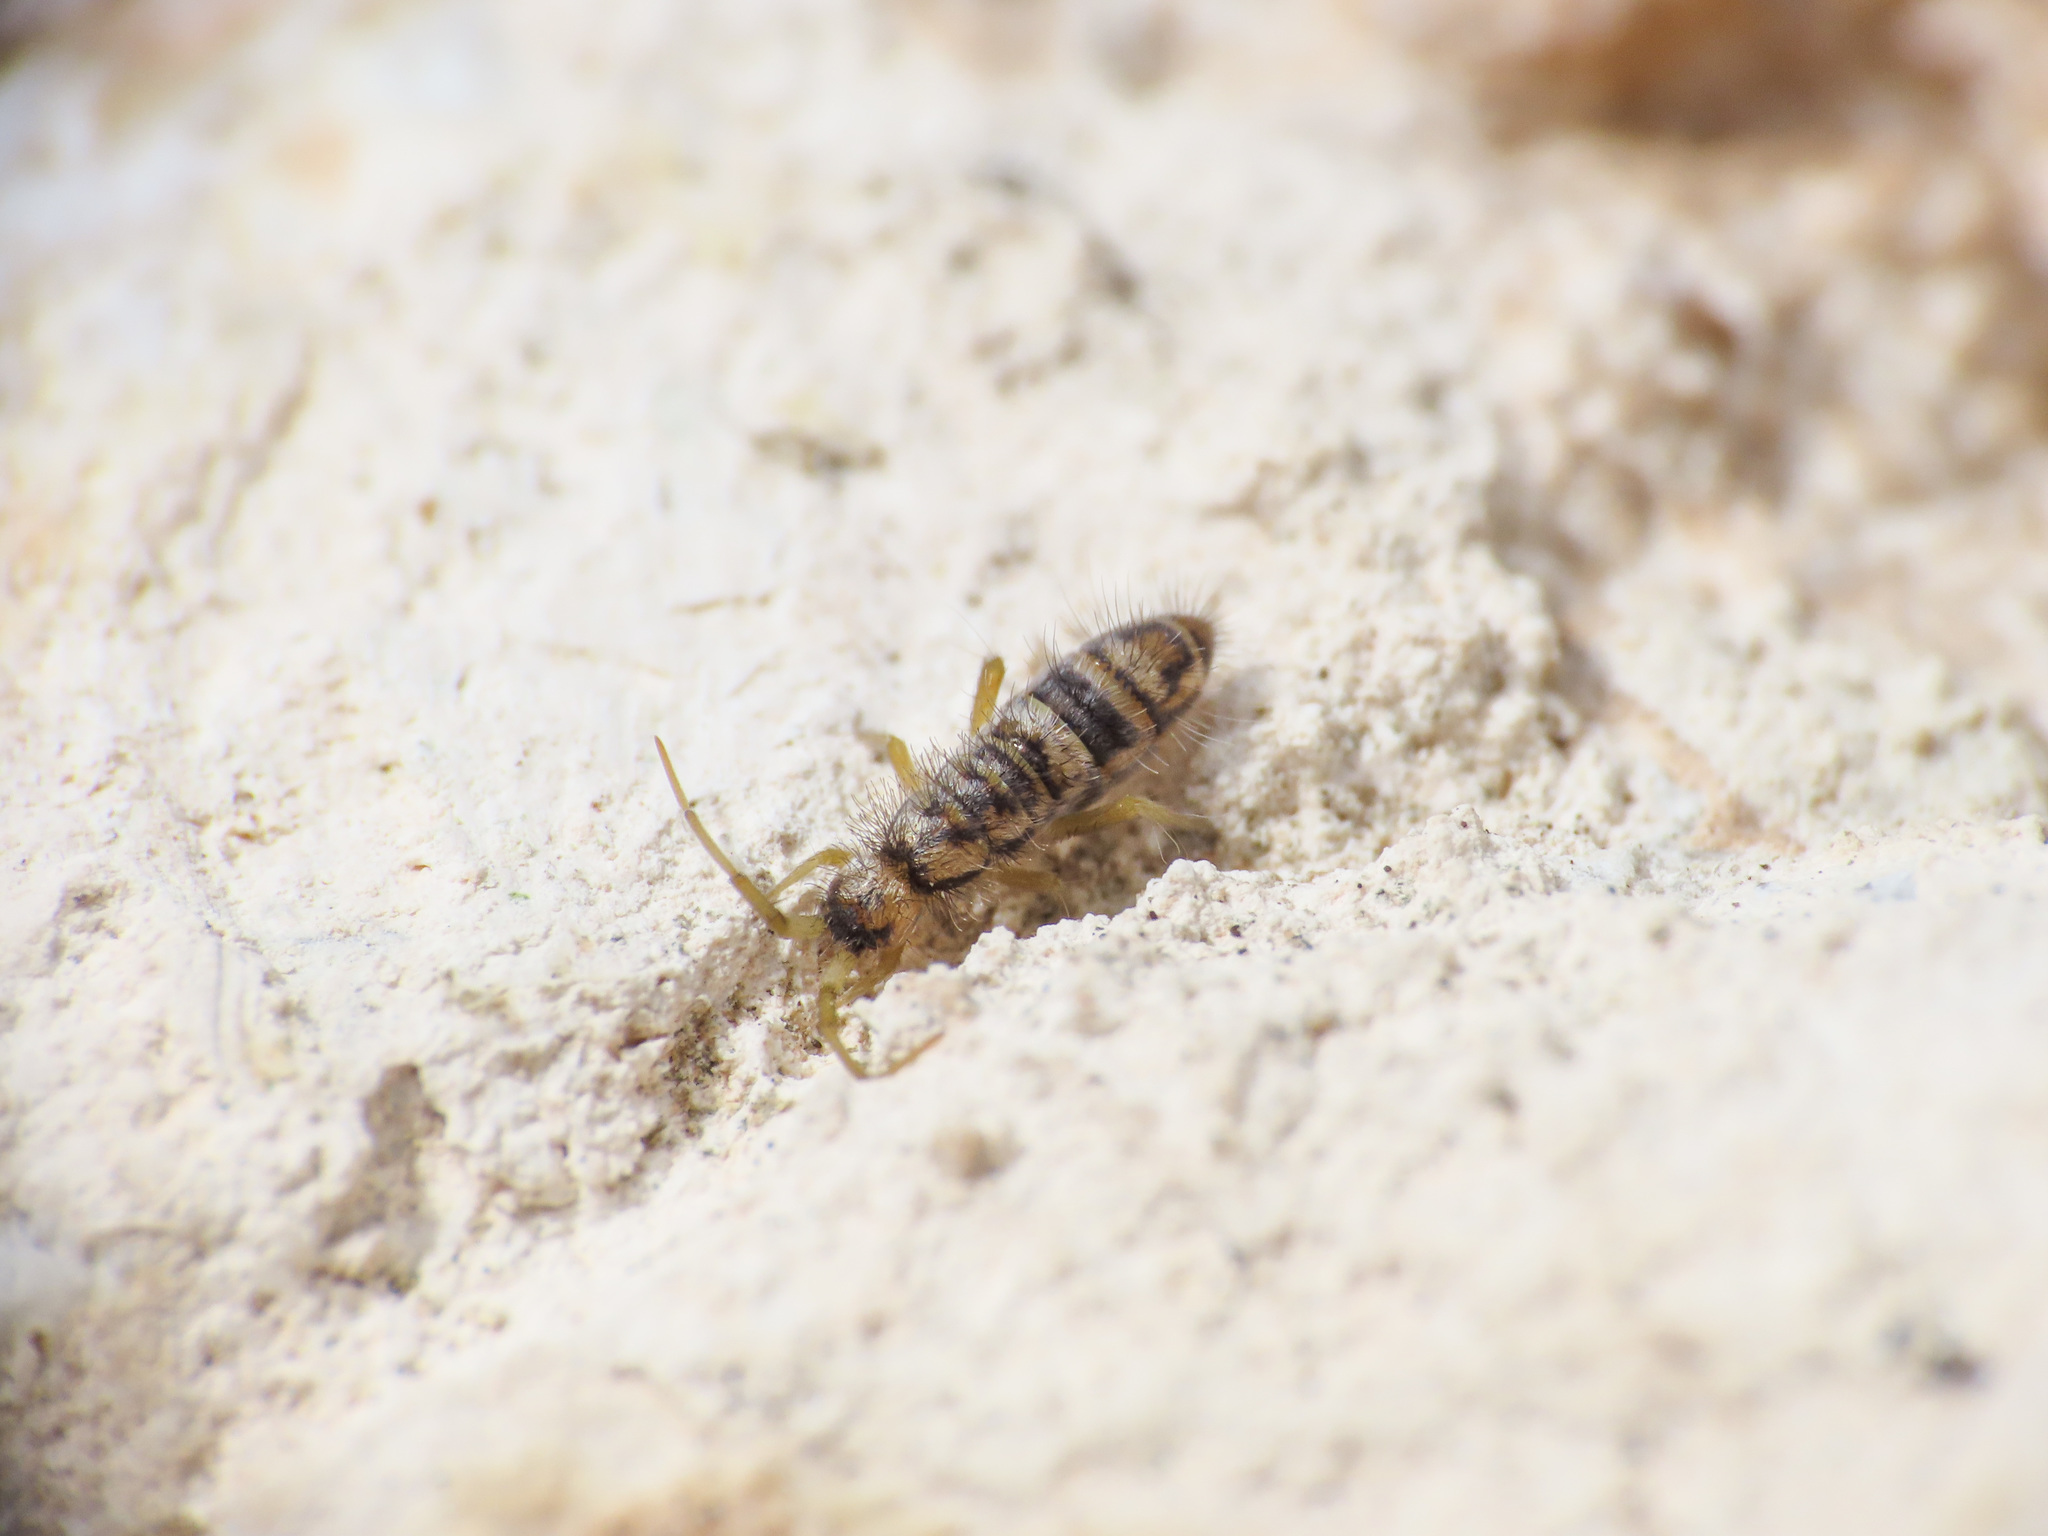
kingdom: Animalia
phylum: Arthropoda
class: Collembola
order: Entomobryomorpha
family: Orchesellidae
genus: Orchesella
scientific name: Orchesella alticola
